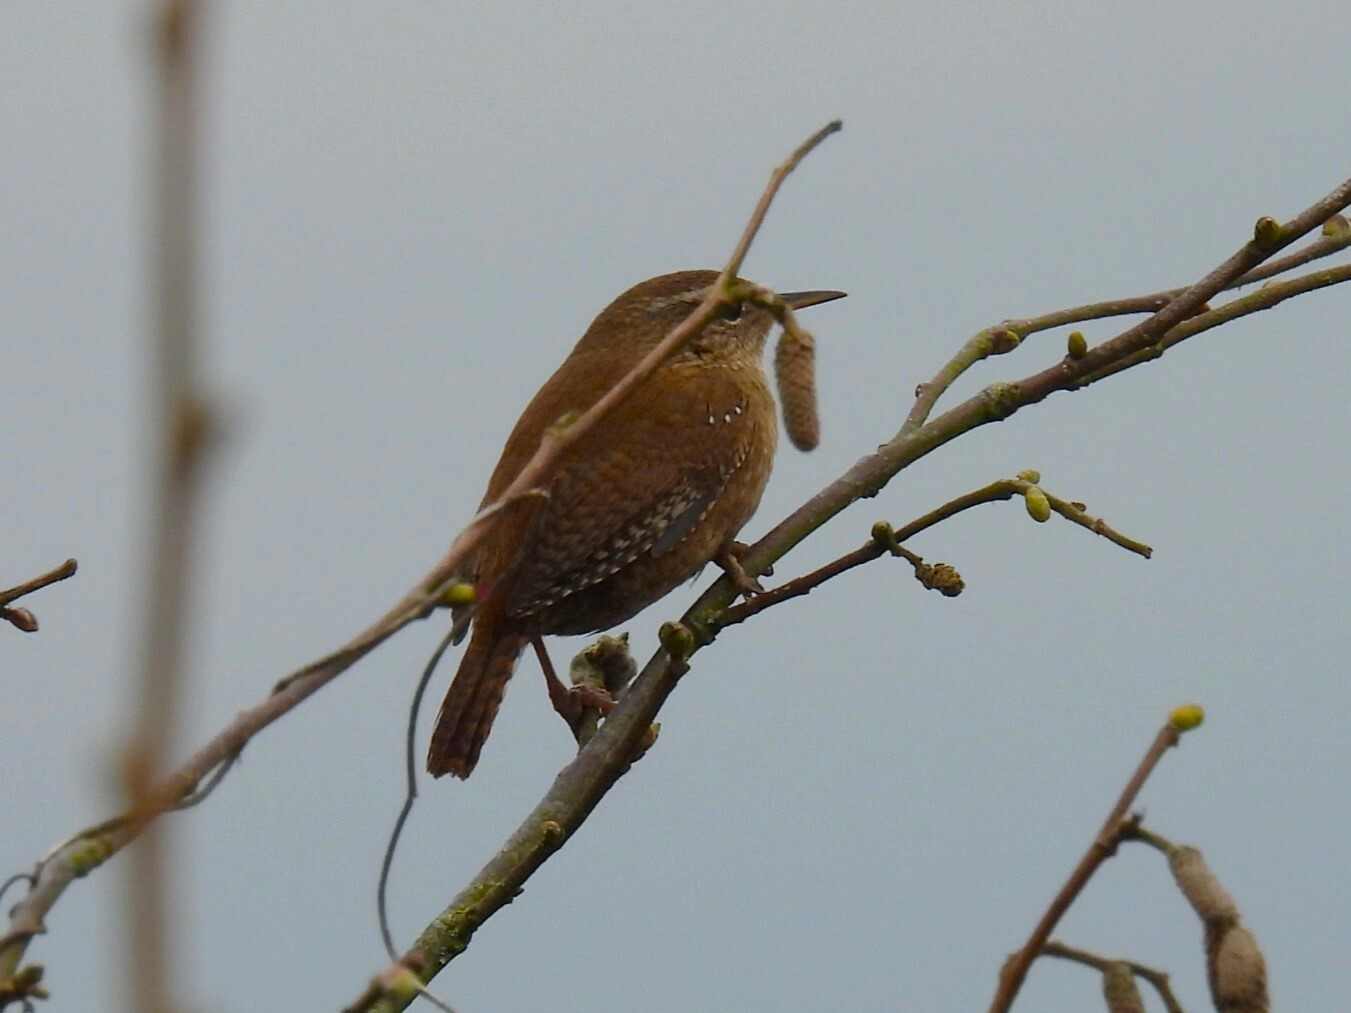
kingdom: Animalia
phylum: Chordata
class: Aves
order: Passeriformes
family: Troglodytidae
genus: Troglodytes
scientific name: Troglodytes troglodytes
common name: Eurasian wren
